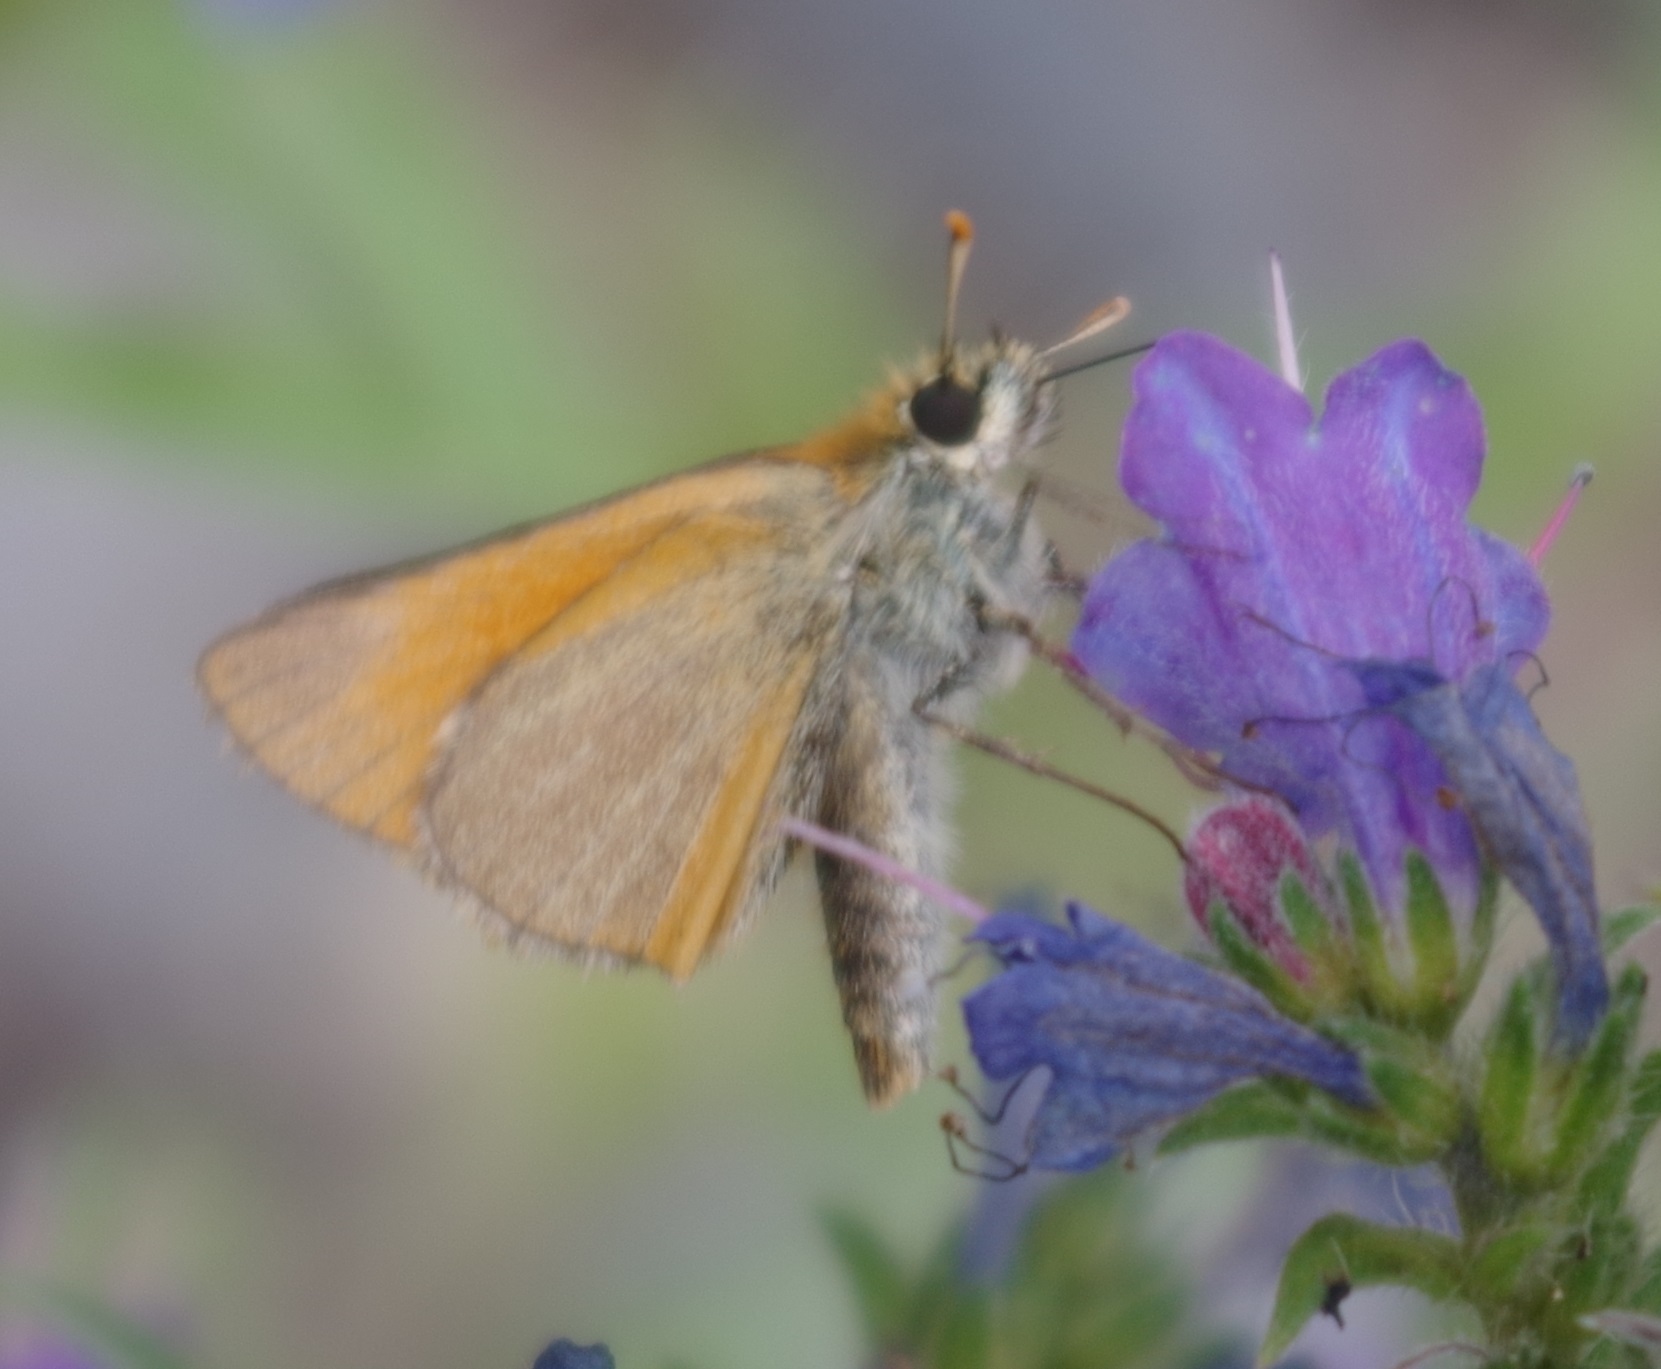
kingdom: Animalia
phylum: Arthropoda
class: Insecta
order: Lepidoptera
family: Hesperiidae
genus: Thymelicus
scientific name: Thymelicus sylvestris
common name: Small skipper
